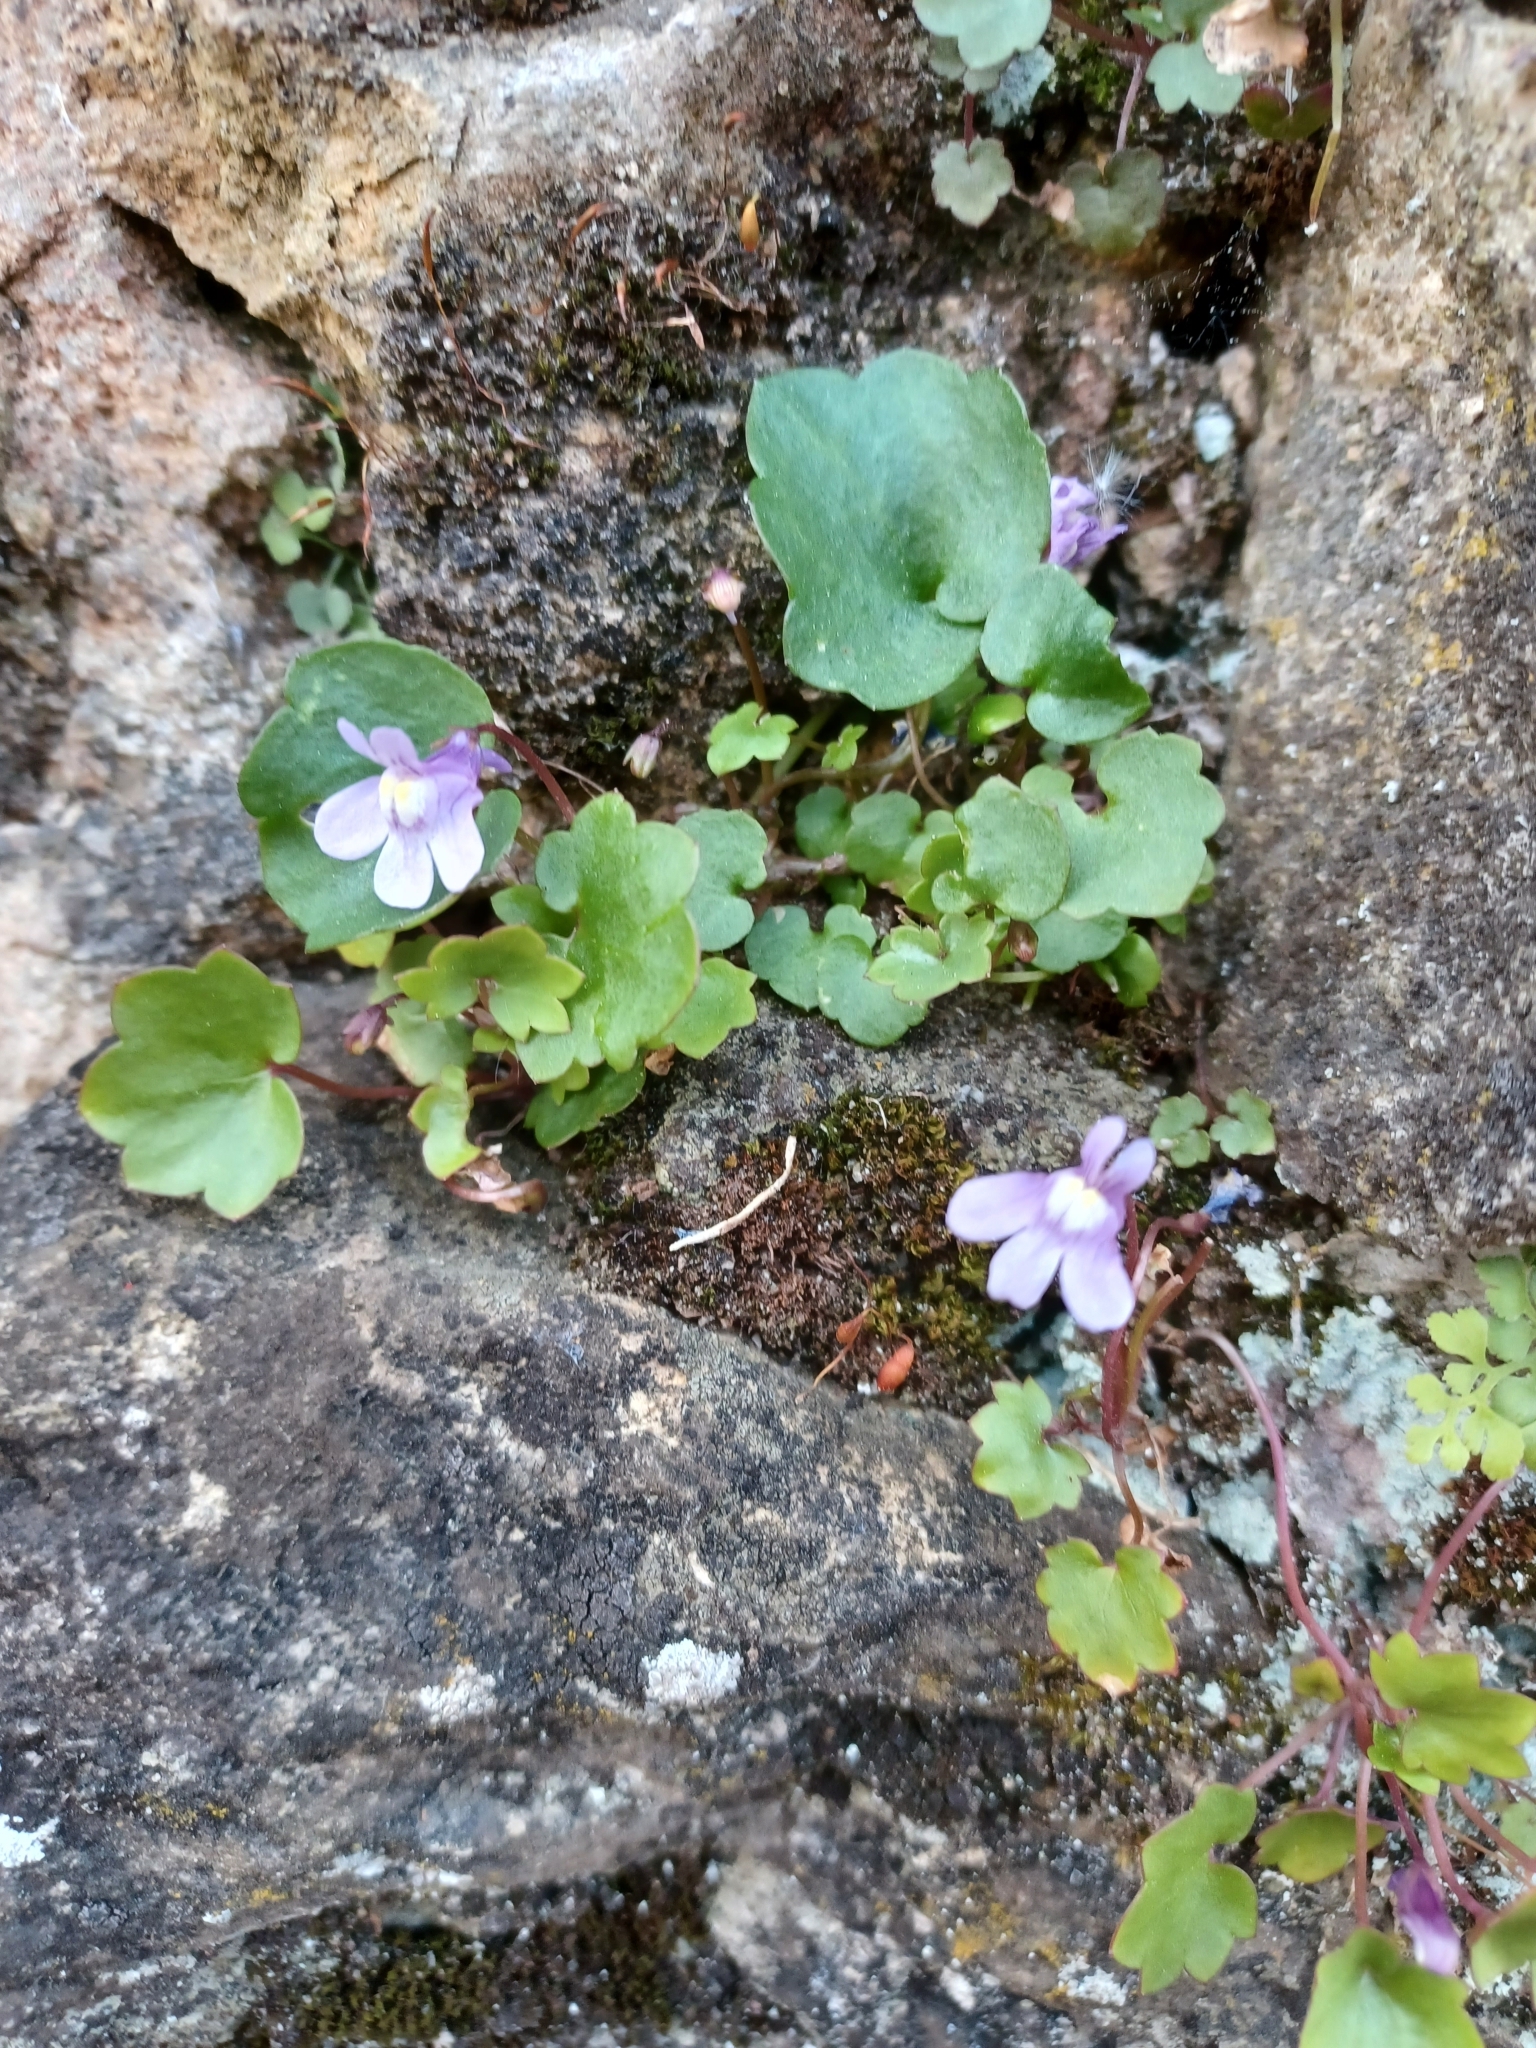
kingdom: Plantae
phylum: Tracheophyta
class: Magnoliopsida
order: Lamiales
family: Plantaginaceae
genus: Cymbalaria
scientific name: Cymbalaria muralis
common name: Ivy-leaved toadflax
